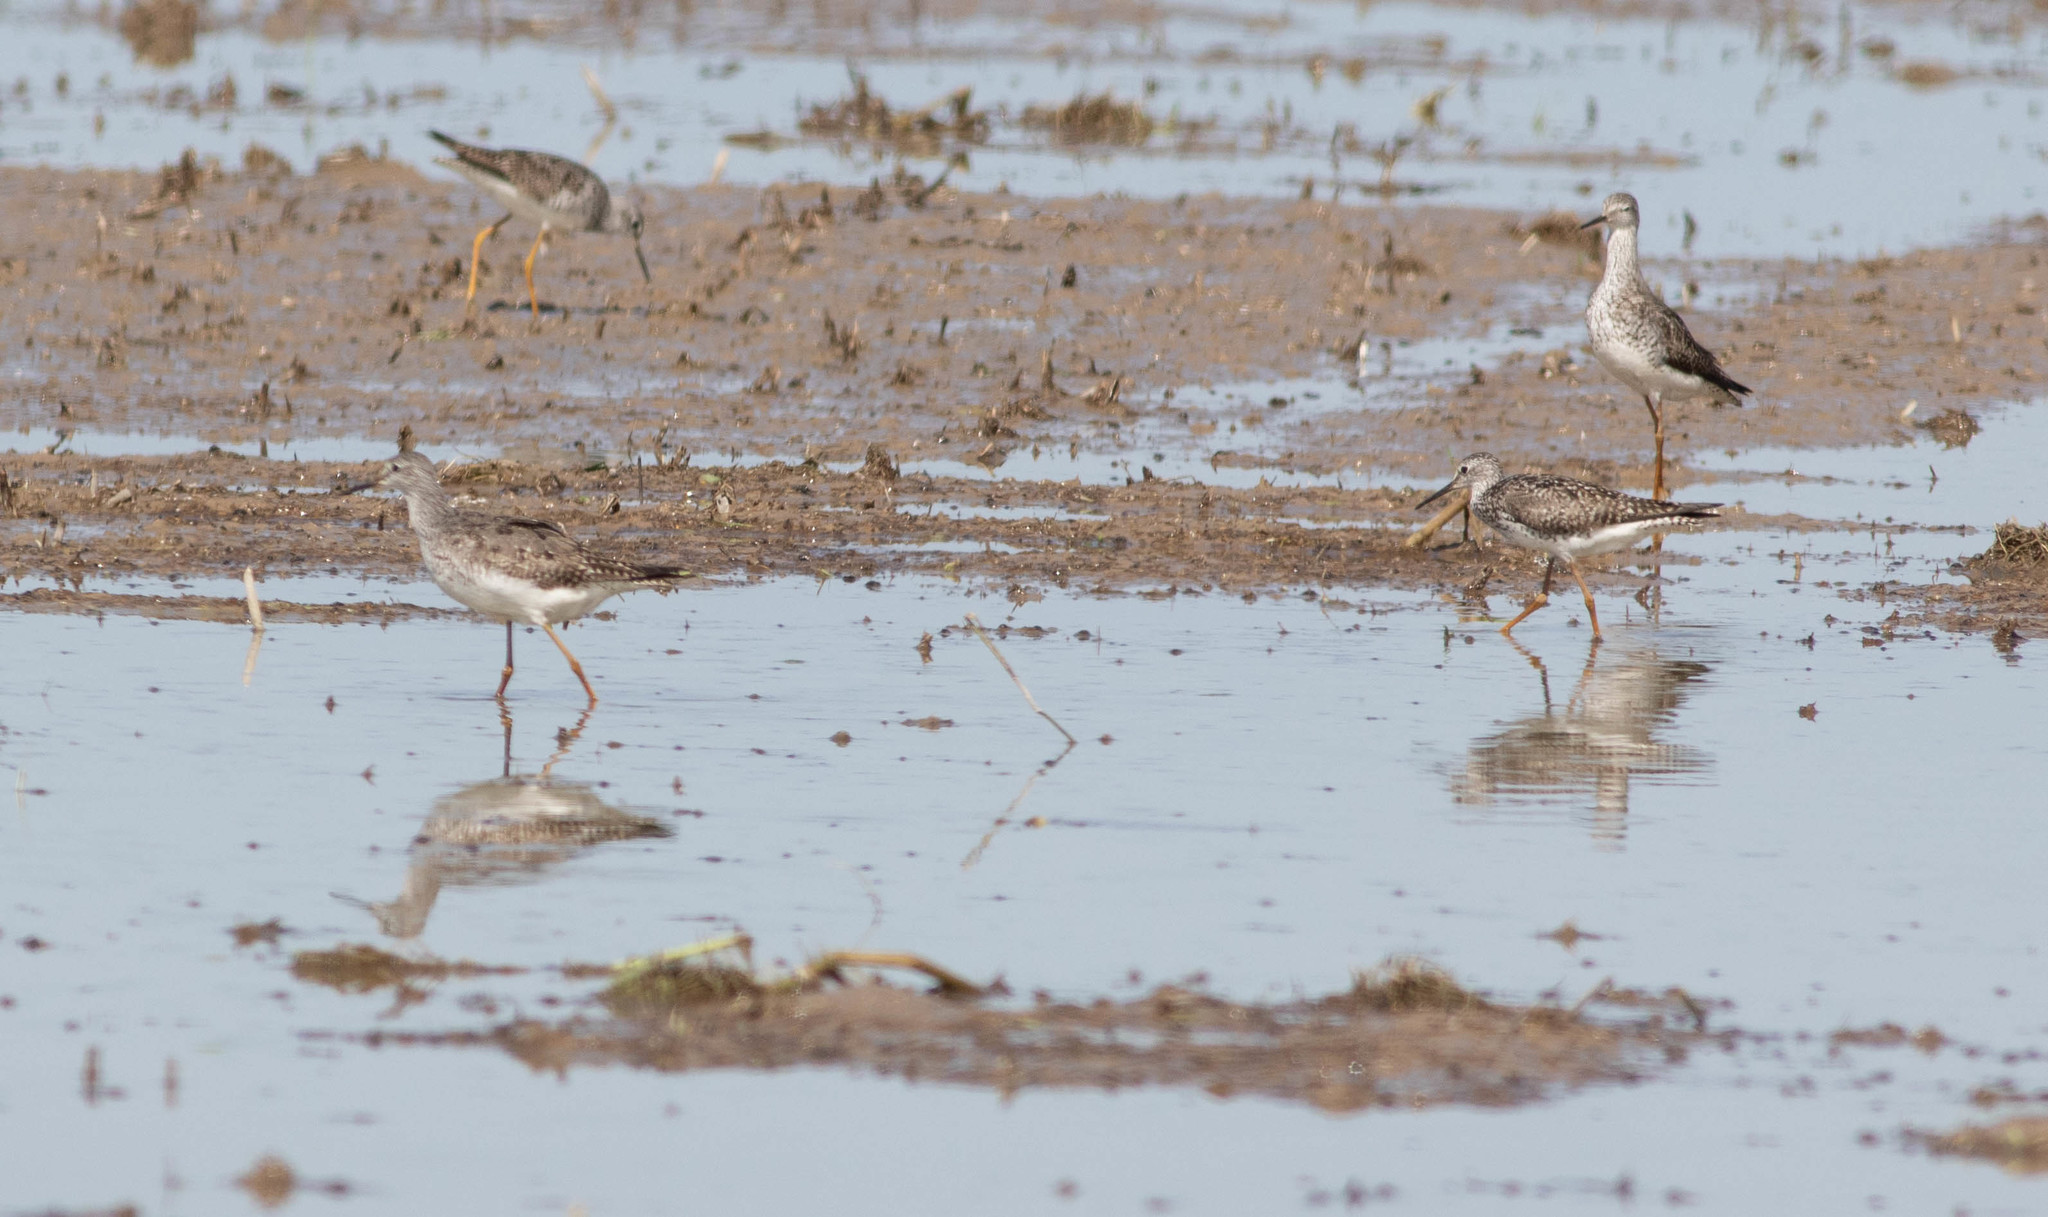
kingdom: Animalia
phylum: Chordata
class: Aves
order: Charadriiformes
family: Scolopacidae
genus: Tringa
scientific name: Tringa flavipes
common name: Lesser yellowlegs
